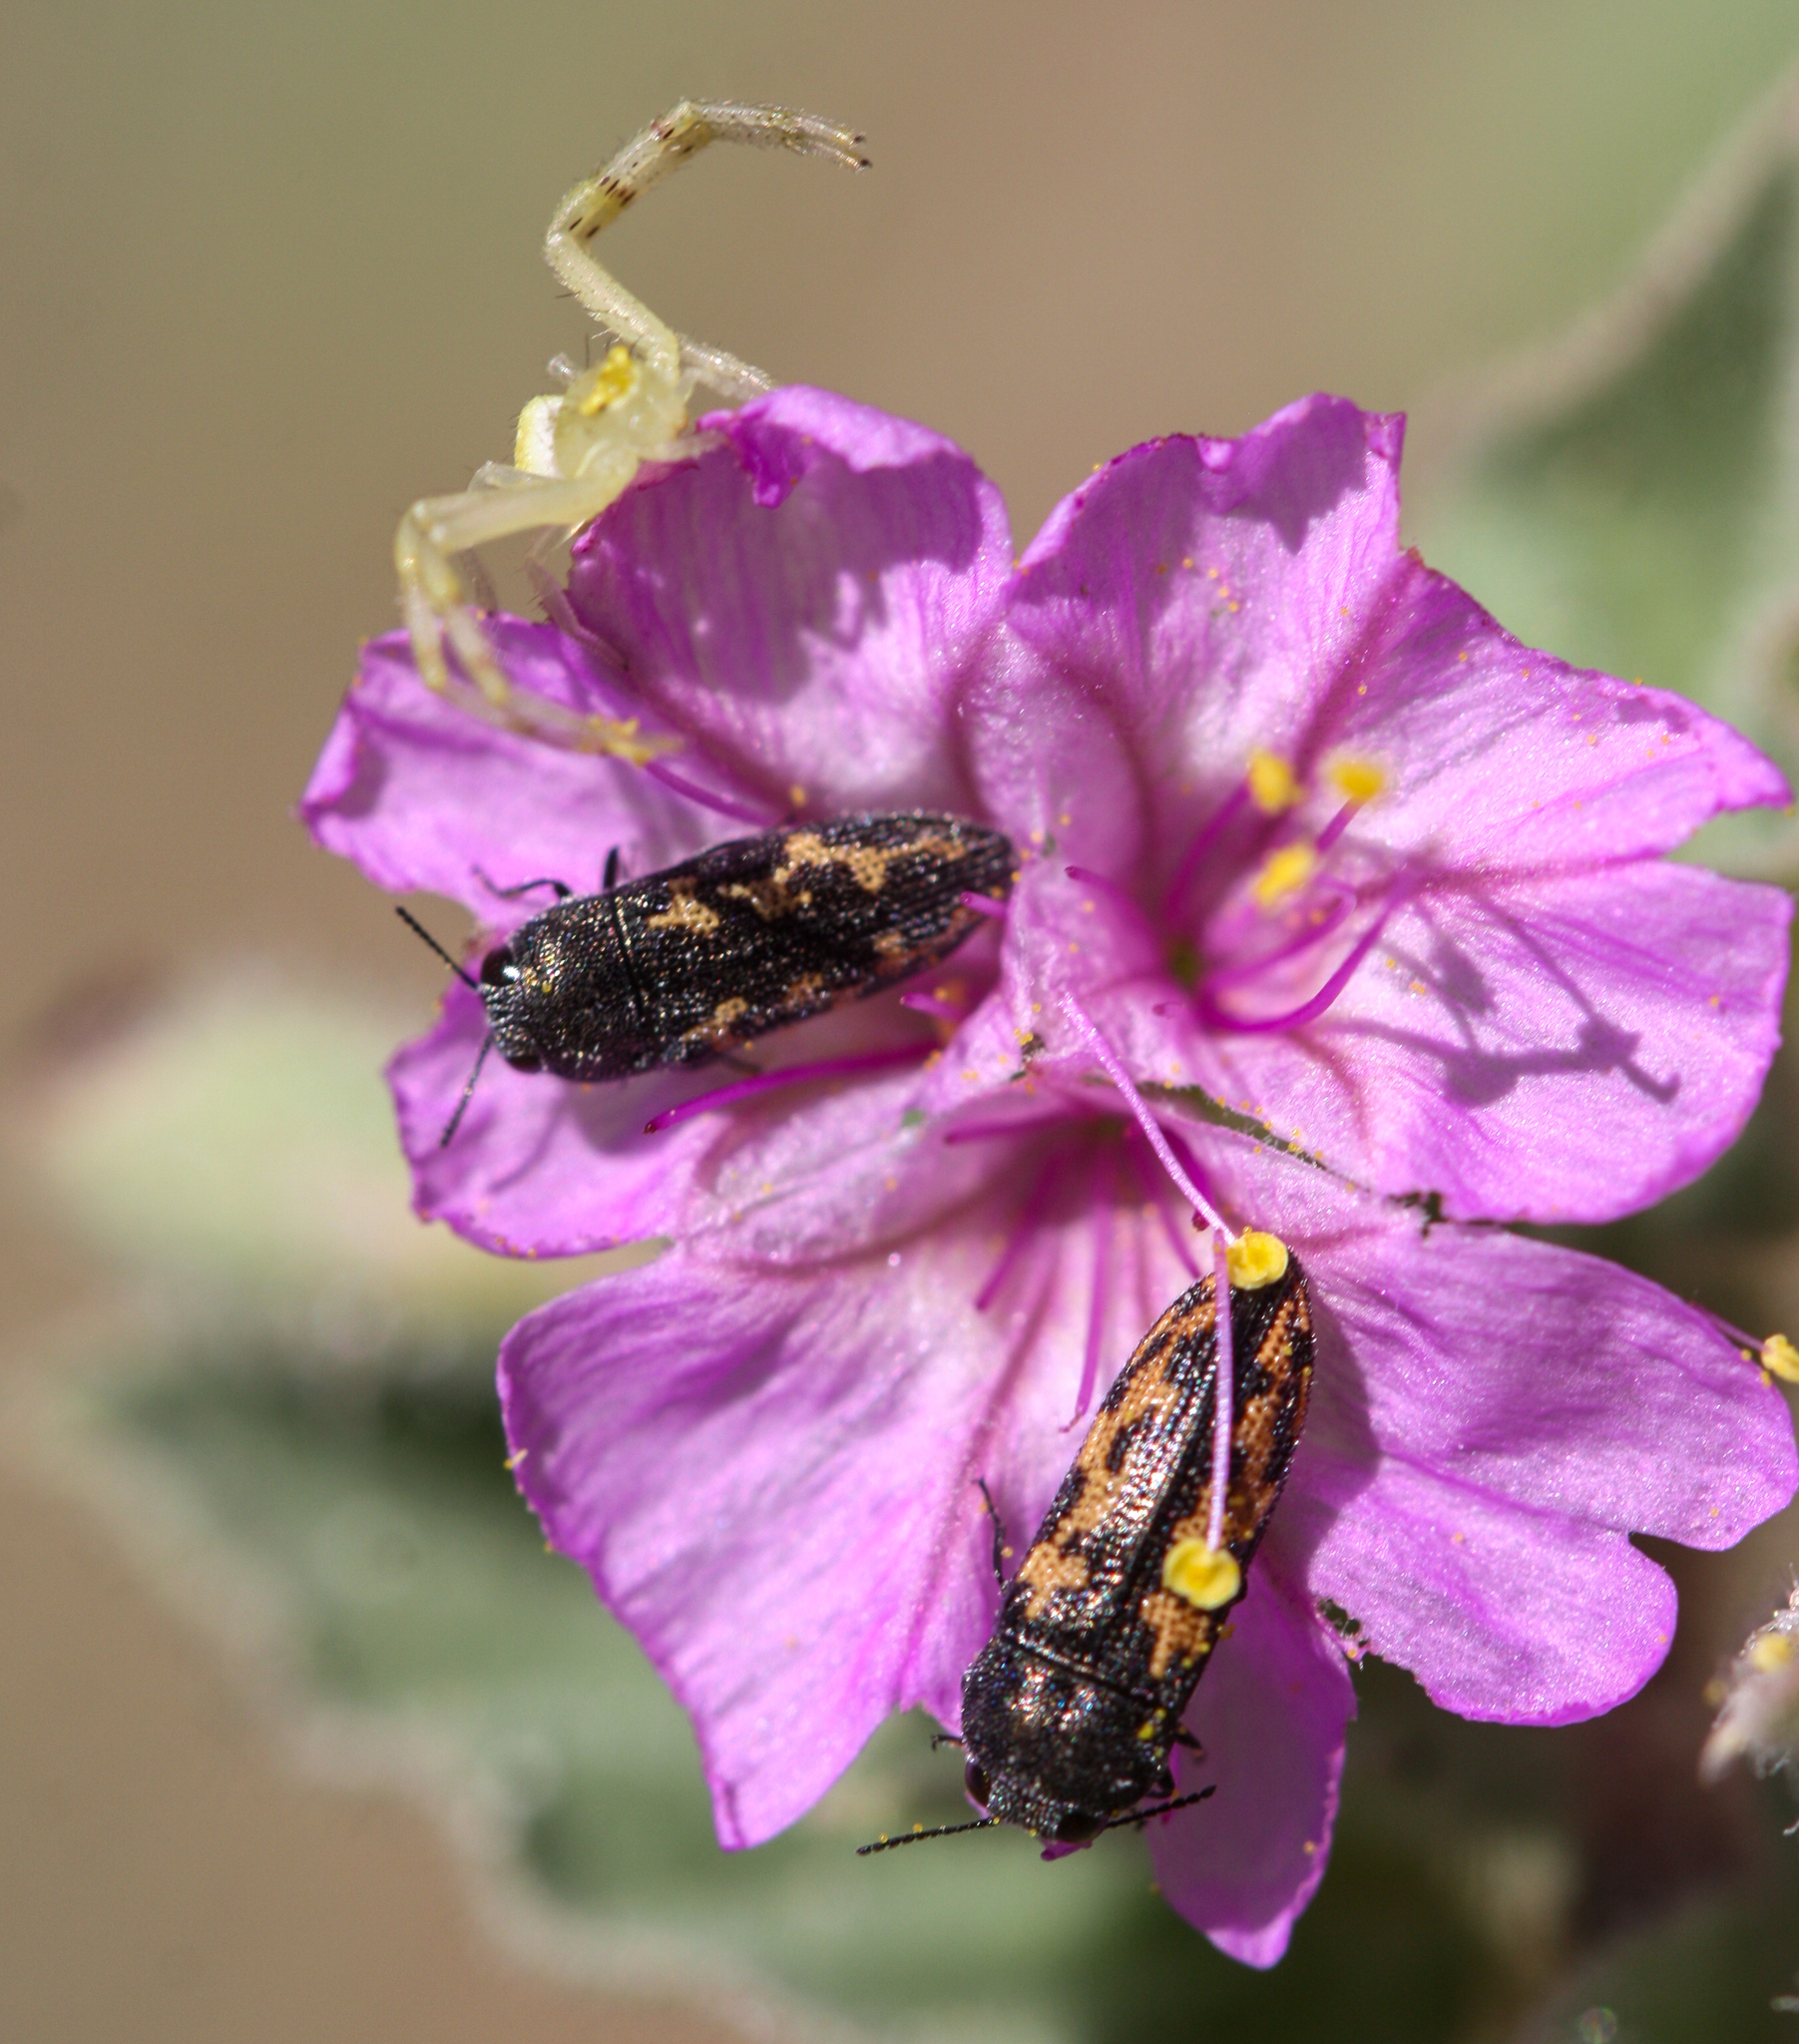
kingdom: Animalia
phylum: Arthropoda
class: Insecta
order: Coleoptera
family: Buprestidae
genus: Acmaeodera
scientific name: Acmaeodera parkeri
